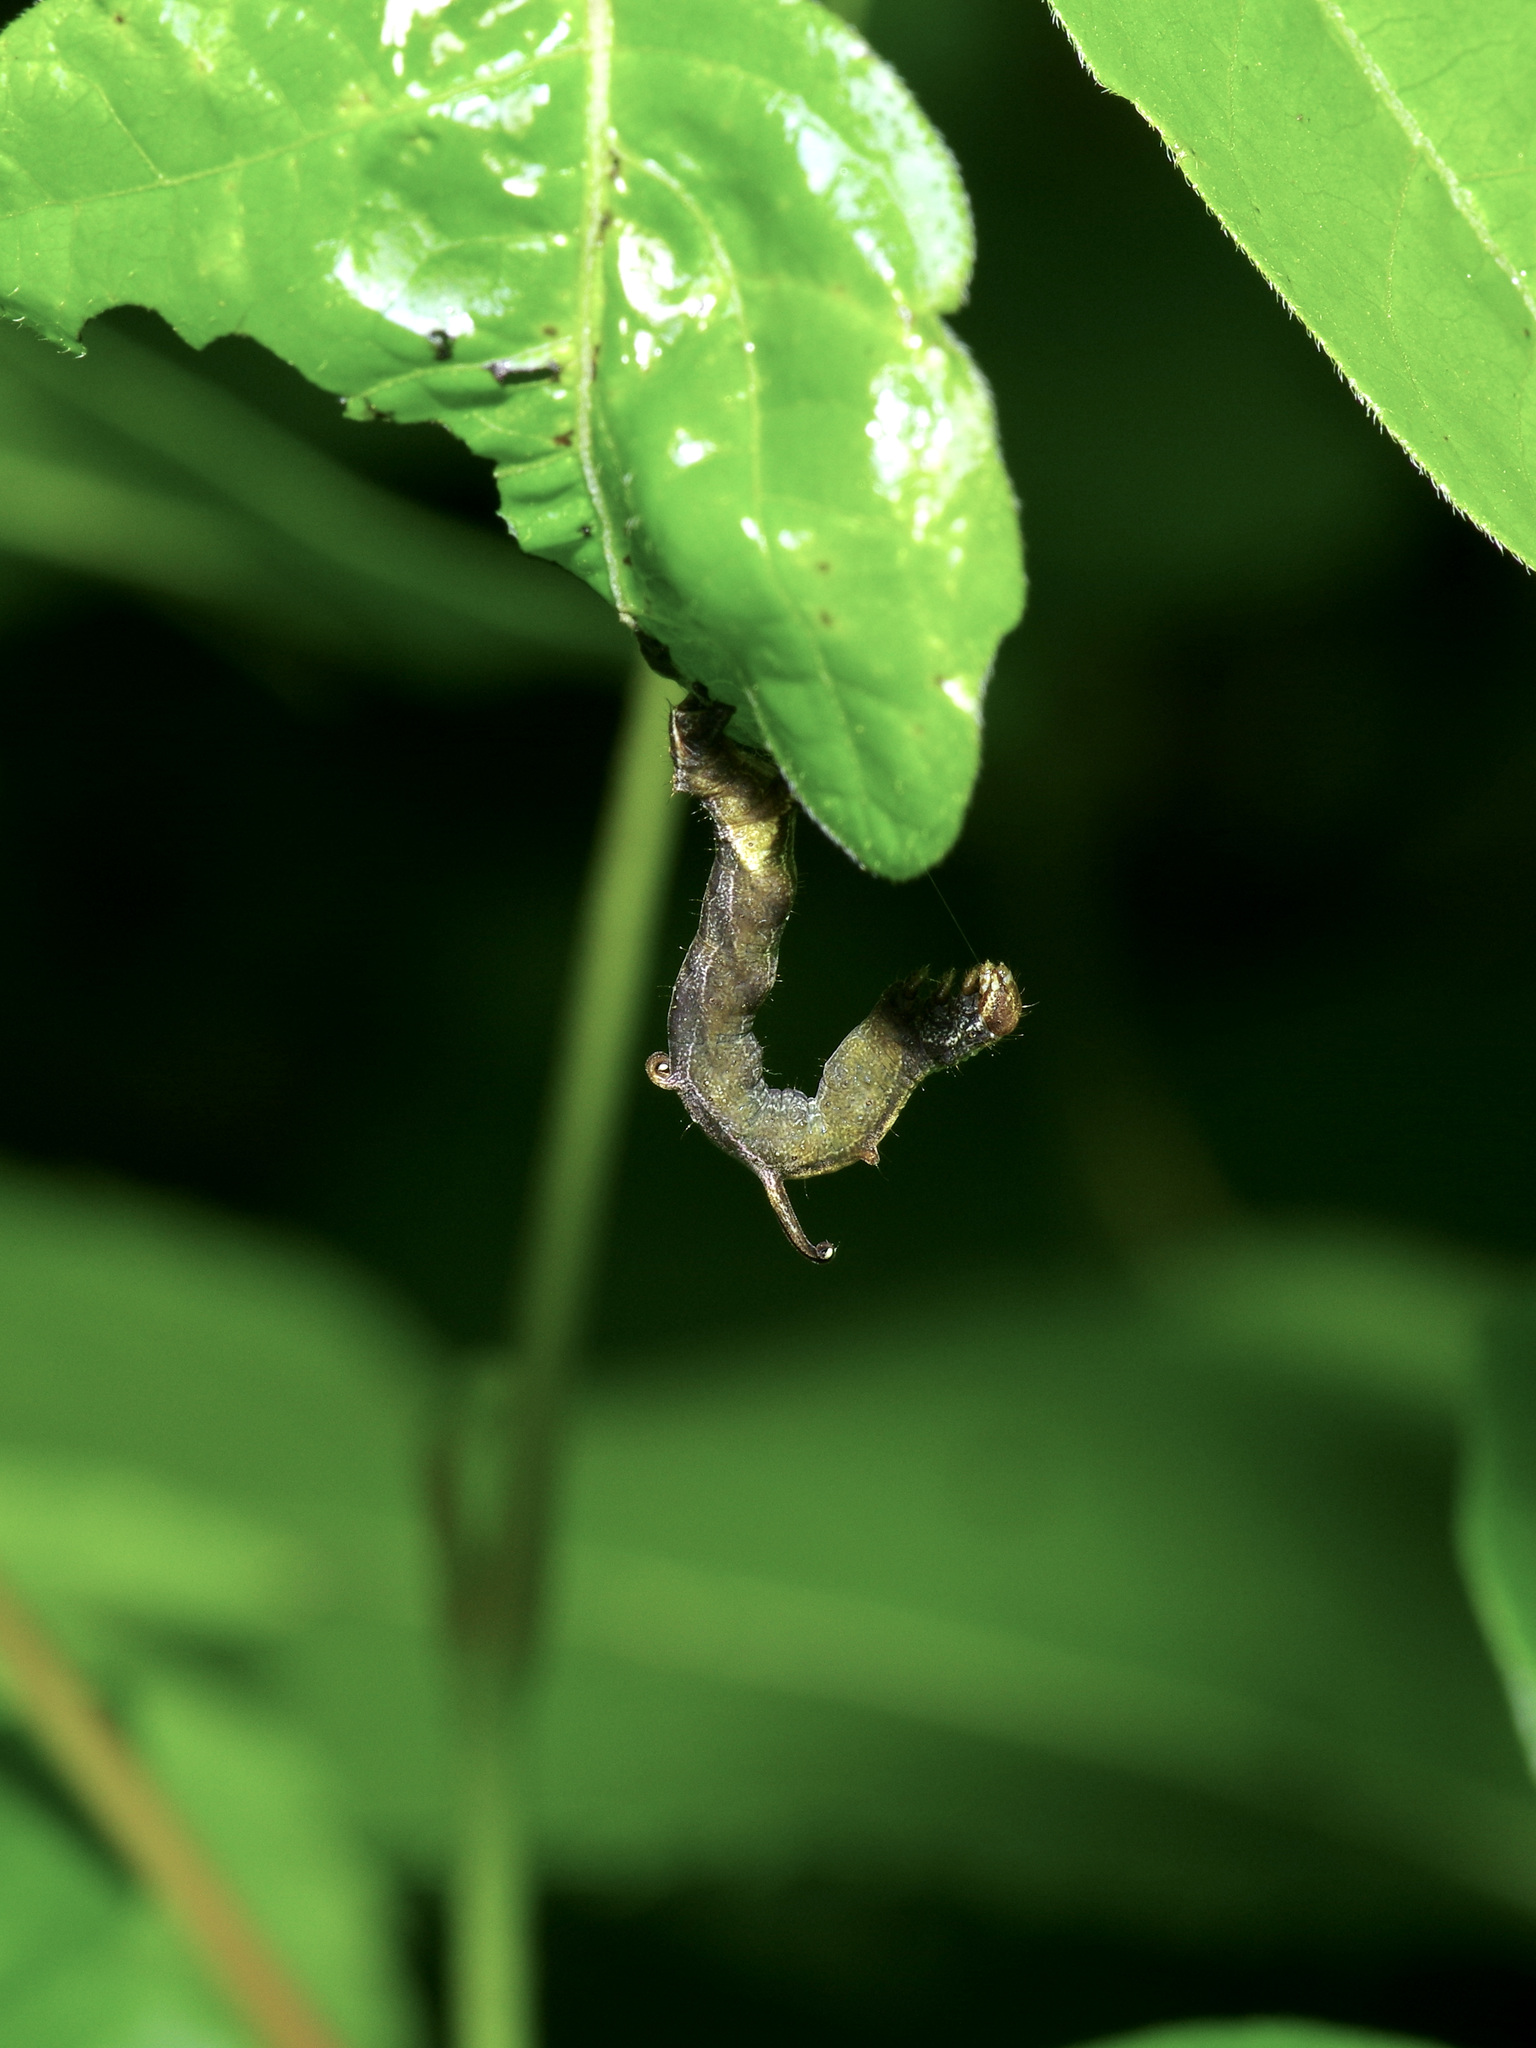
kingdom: Animalia
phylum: Arthropoda
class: Insecta
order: Lepidoptera
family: Geometridae
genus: Nematocampa
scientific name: Nematocampa resistaria
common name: Horned spanworm moth
